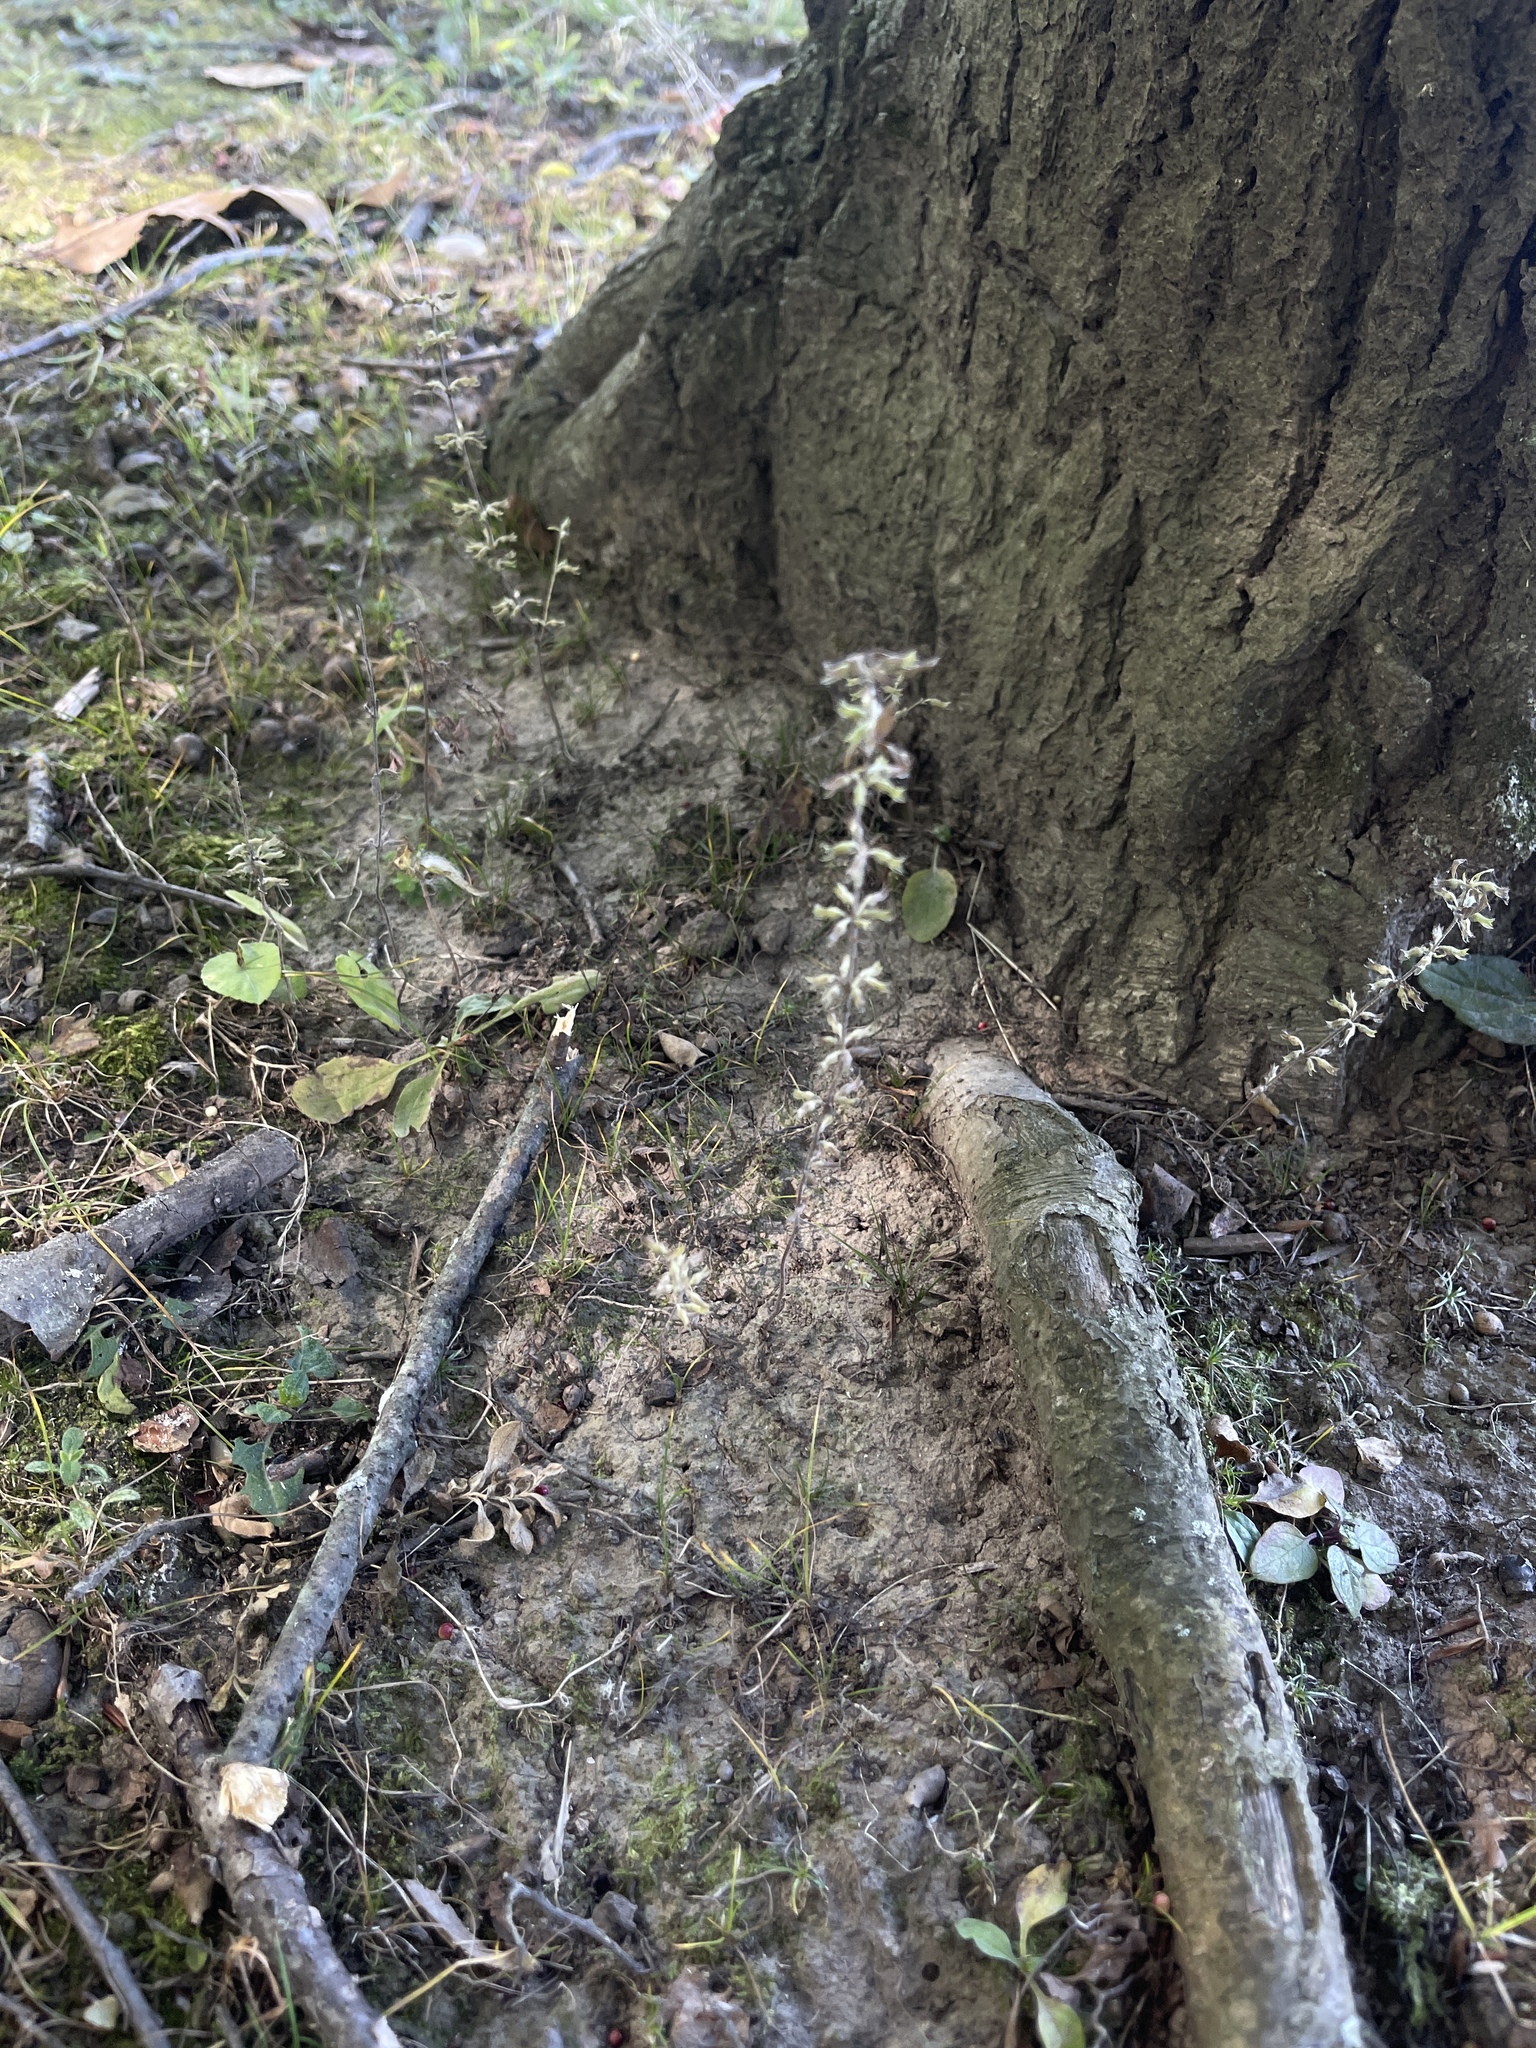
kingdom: Plantae
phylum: Tracheophyta
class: Magnoliopsida
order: Lamiales
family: Lamiaceae
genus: Hedeoma
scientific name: Hedeoma pulegioides
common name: American false pennyroyal
